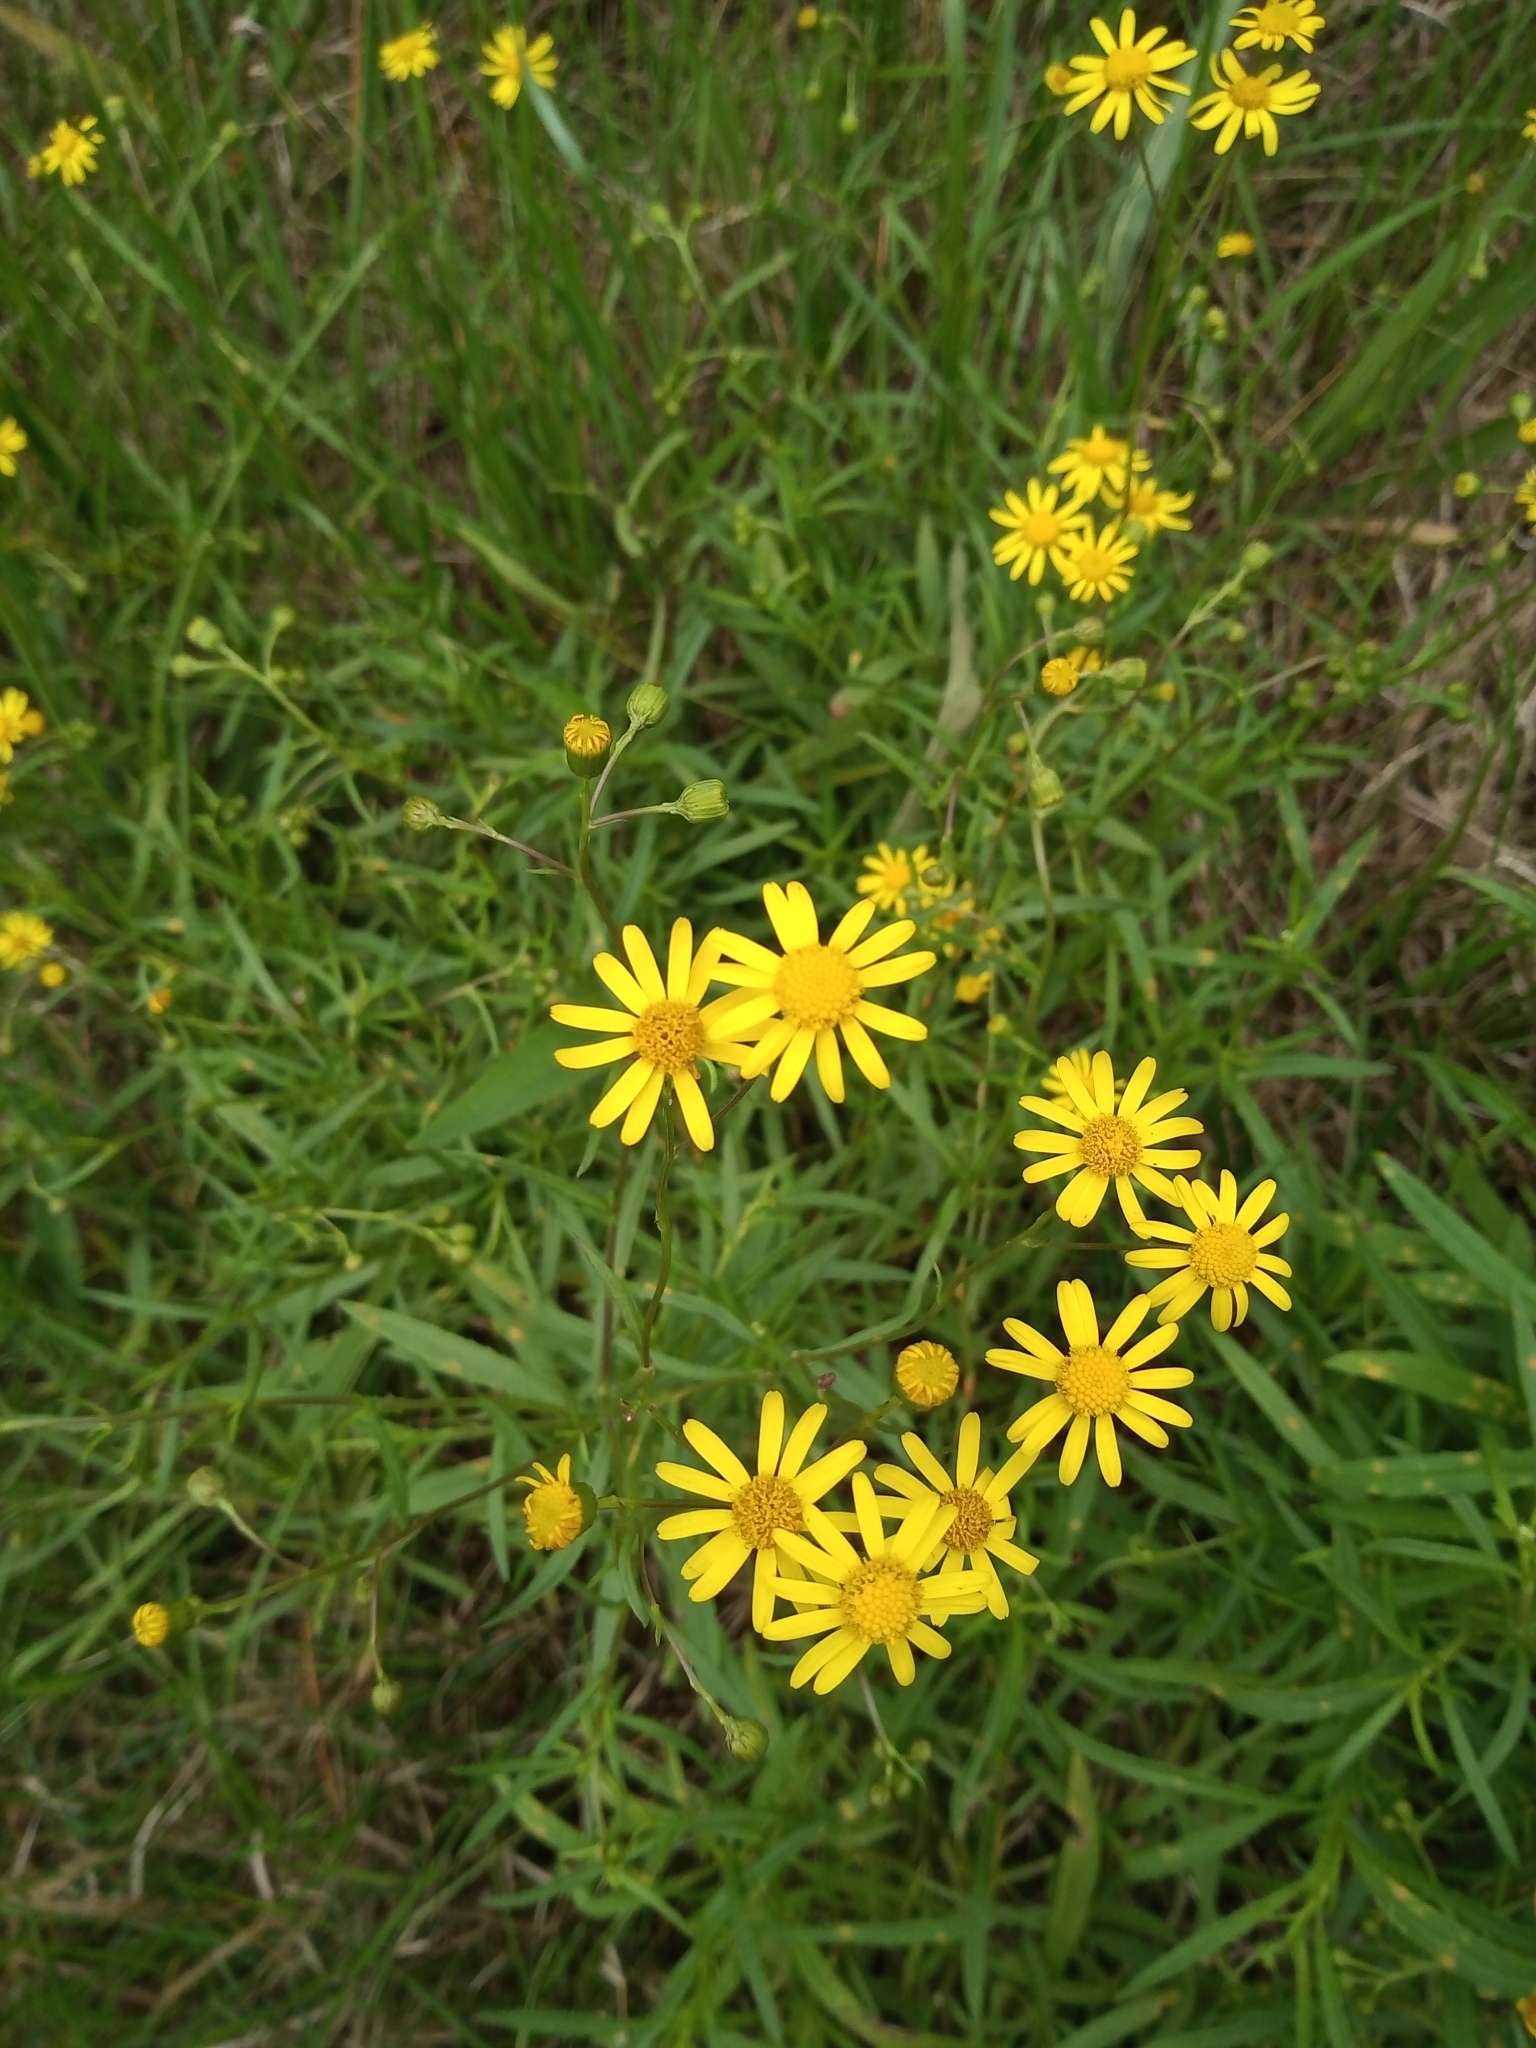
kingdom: Plantae
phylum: Tracheophyta
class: Magnoliopsida
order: Asterales
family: Asteraceae
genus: Senecio
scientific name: Senecio pterophorus
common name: Shoddy ragwort
